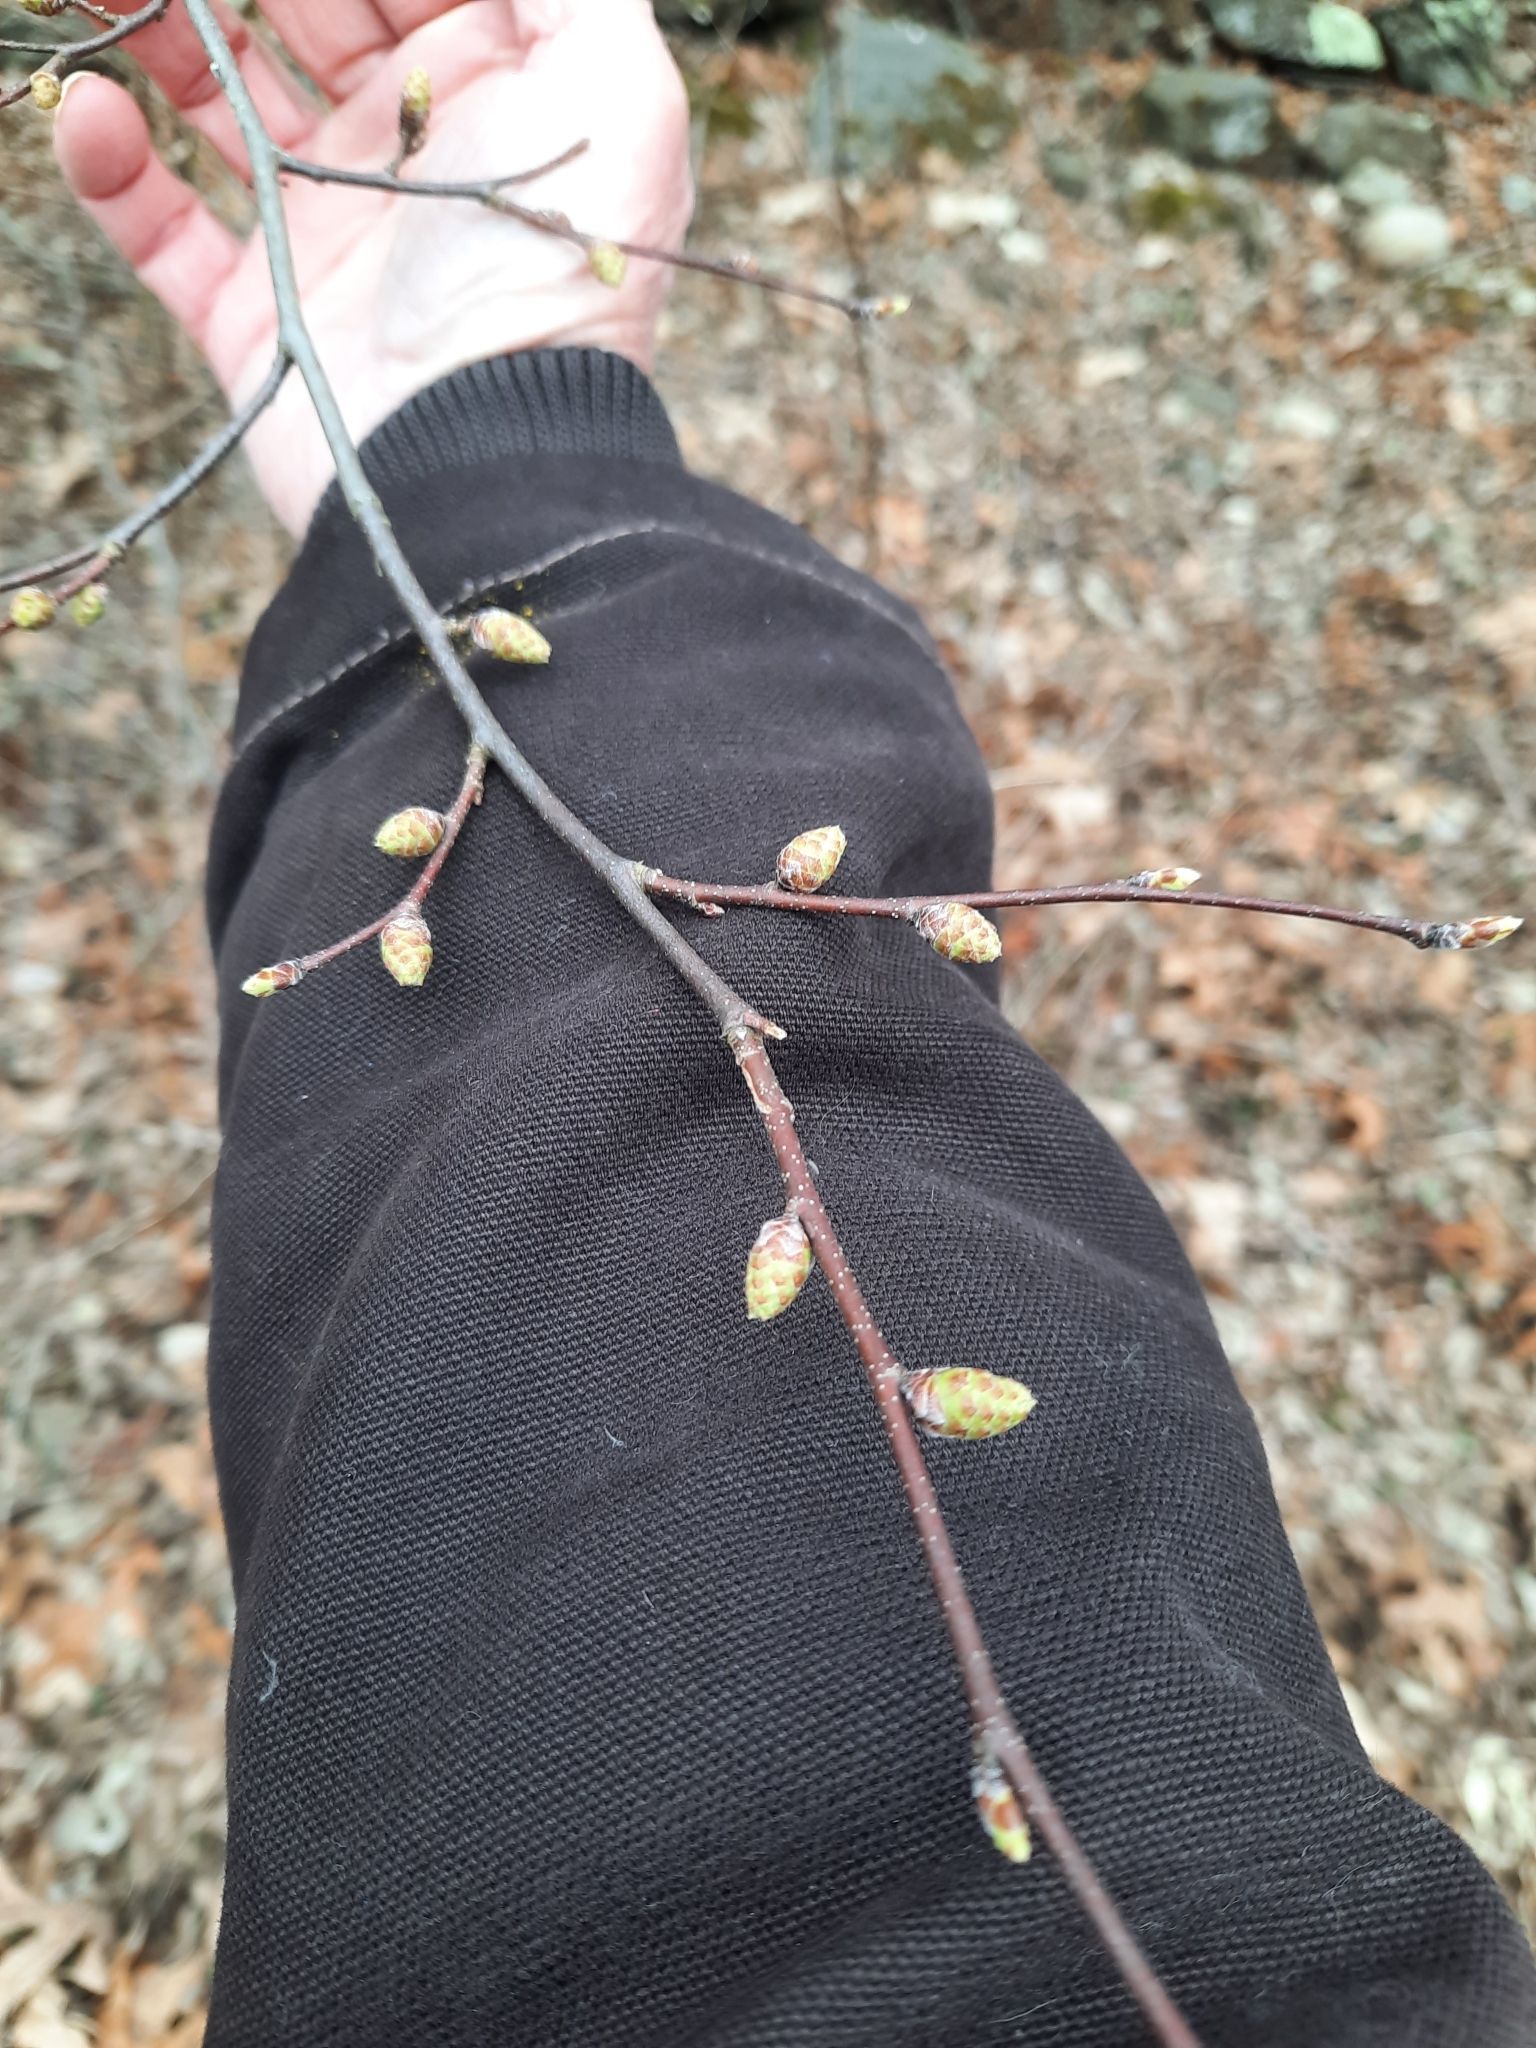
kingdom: Plantae
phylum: Tracheophyta
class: Magnoliopsida
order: Fagales
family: Betulaceae
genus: Carpinus
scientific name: Carpinus caroliniana
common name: American hornbeam
